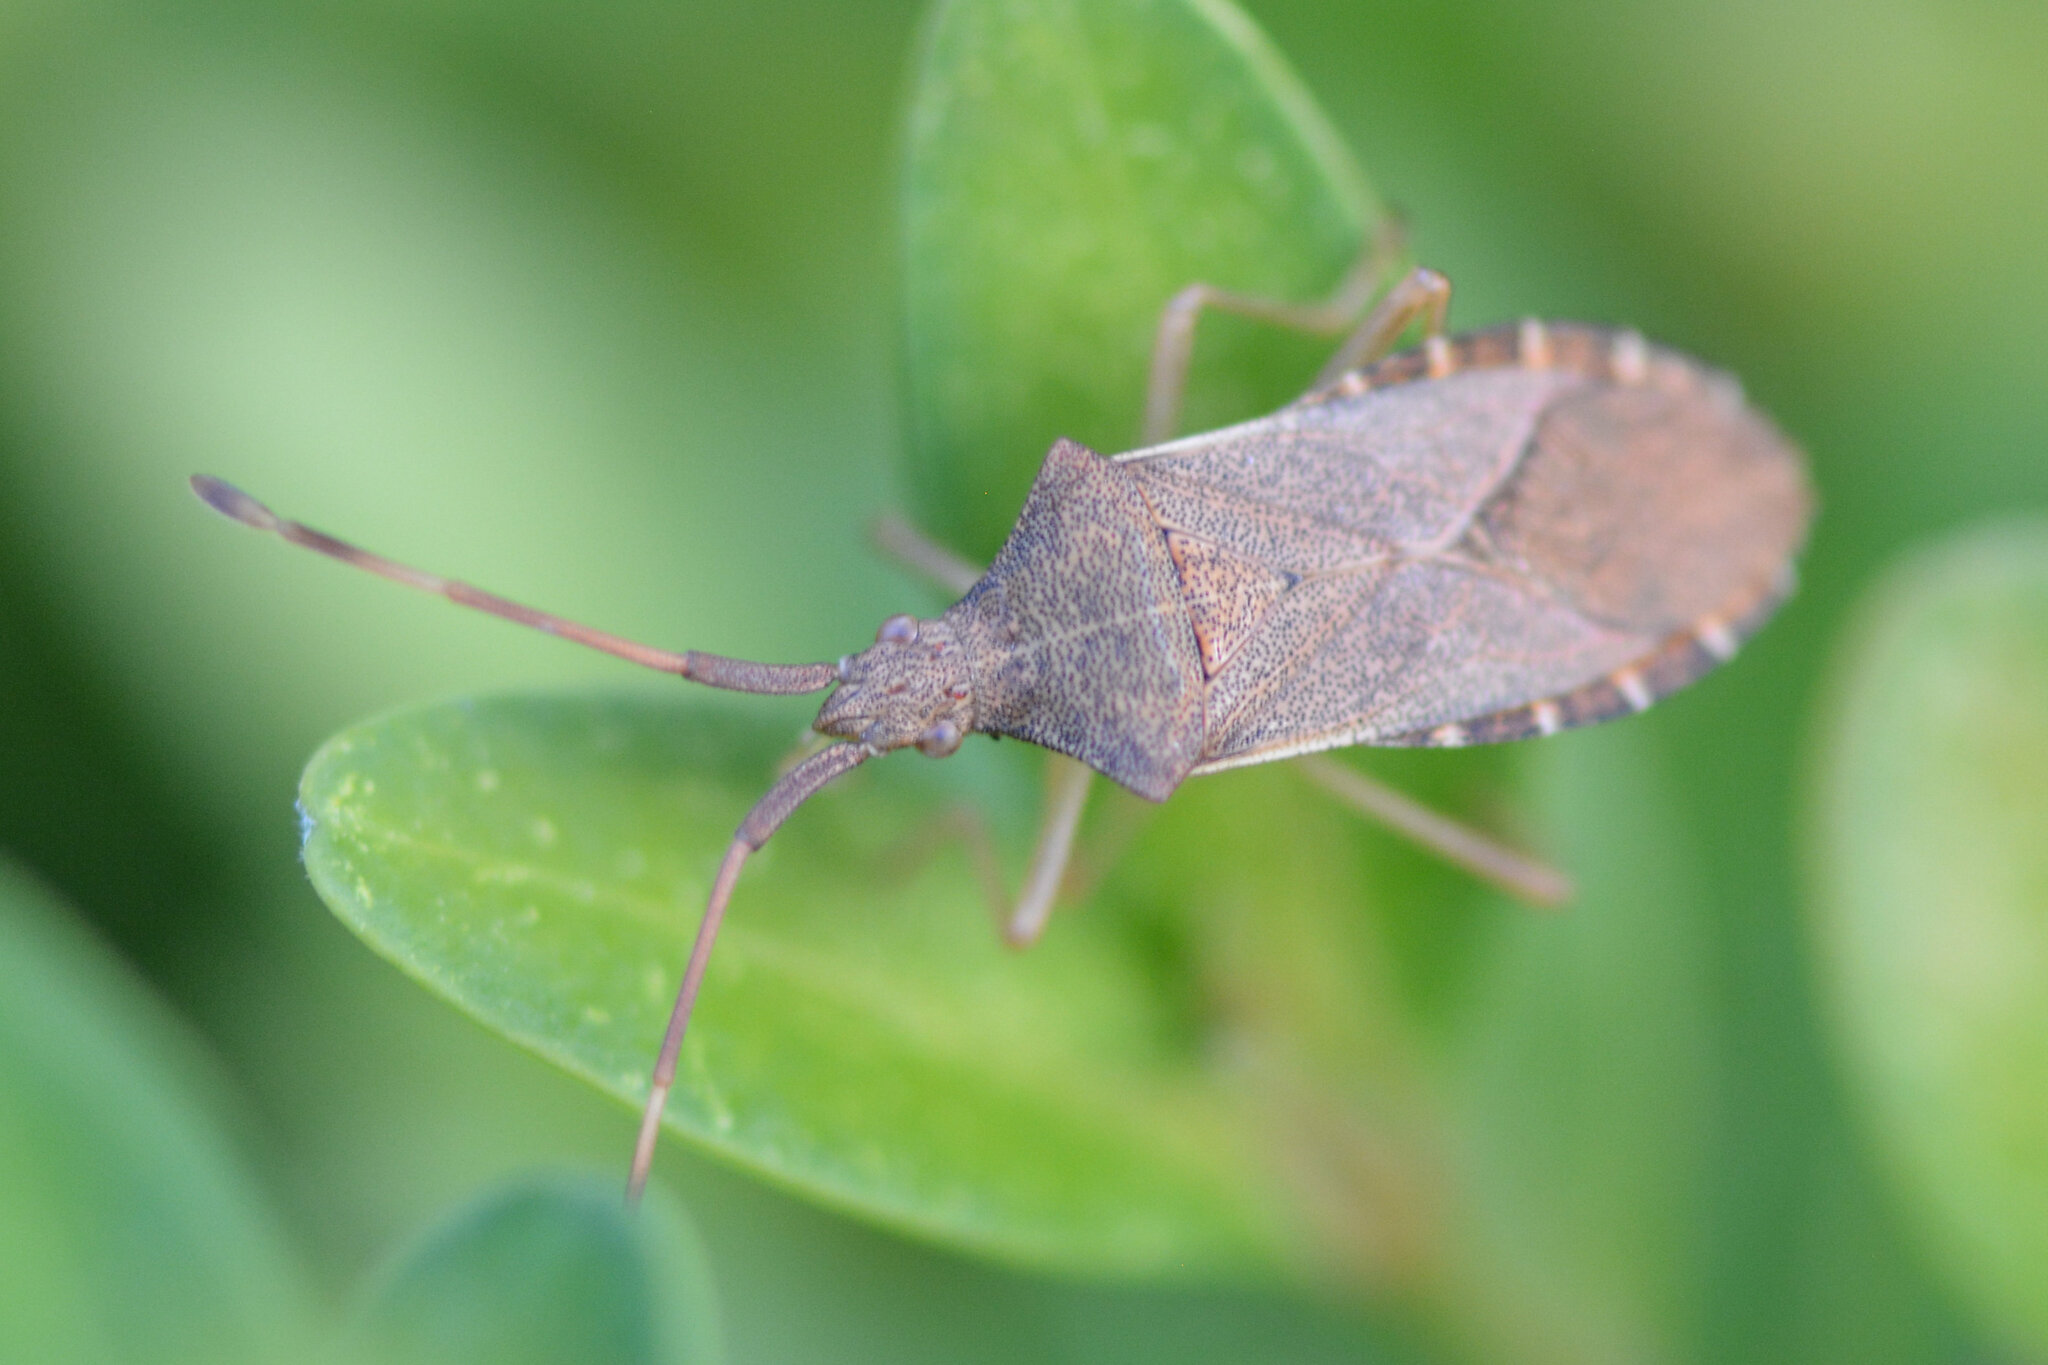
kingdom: Animalia
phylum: Arthropoda
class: Insecta
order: Hemiptera
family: Coreidae
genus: Gonocerus
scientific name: Gonocerus acuteangulatus
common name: Box bug
